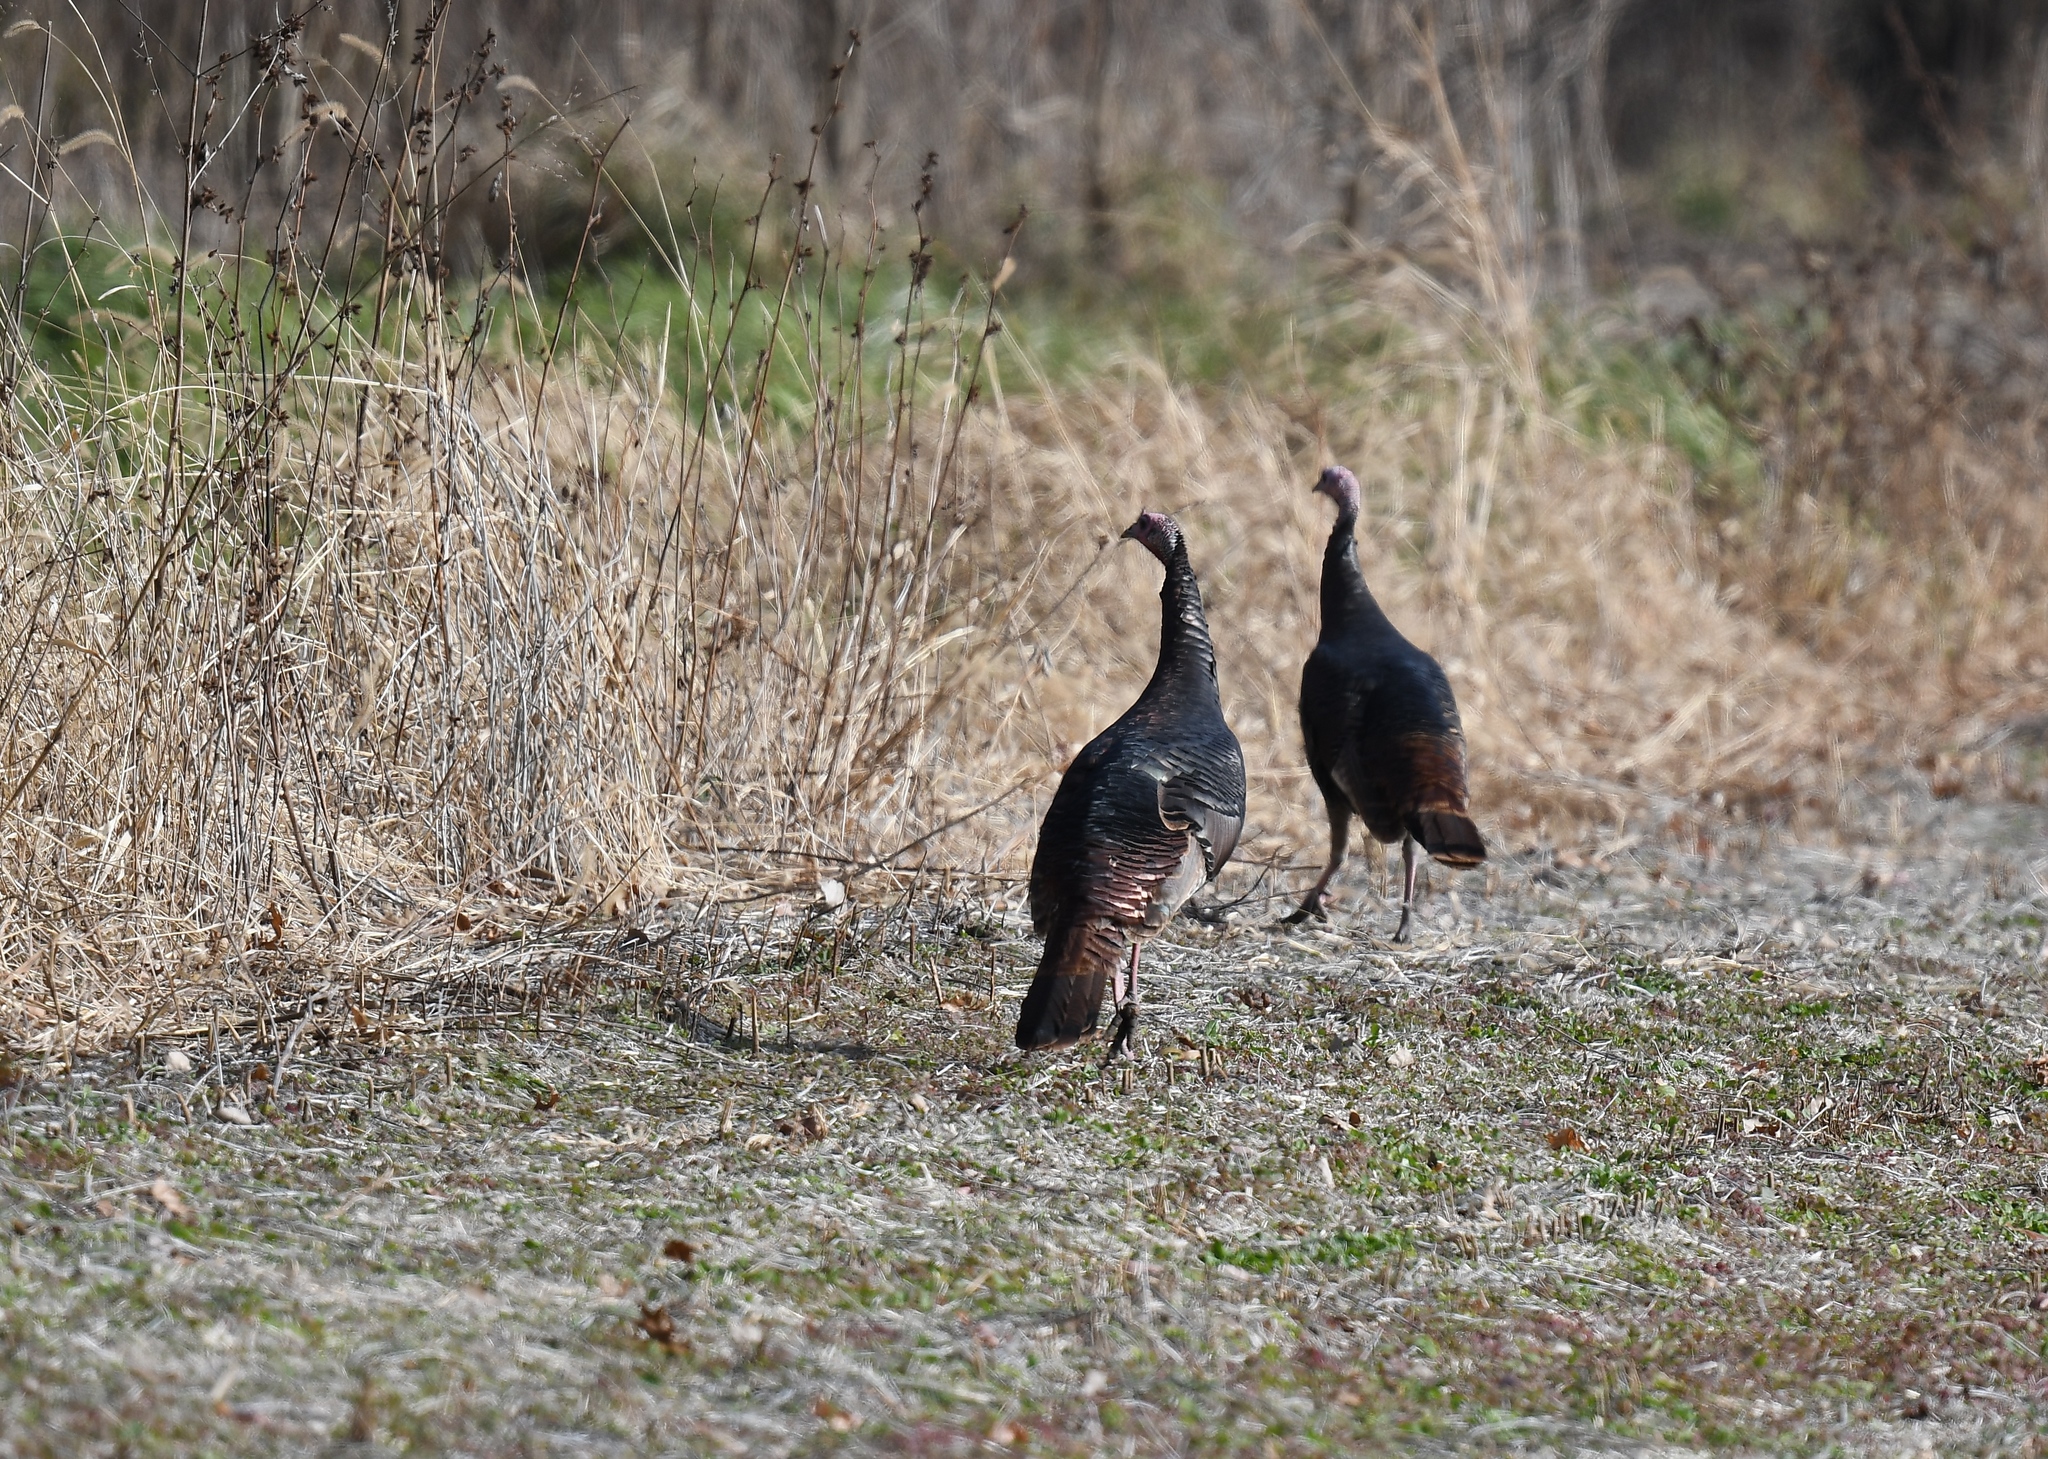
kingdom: Animalia
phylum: Chordata
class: Aves
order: Galliformes
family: Phasianidae
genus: Meleagris
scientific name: Meleagris gallopavo
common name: Wild turkey
